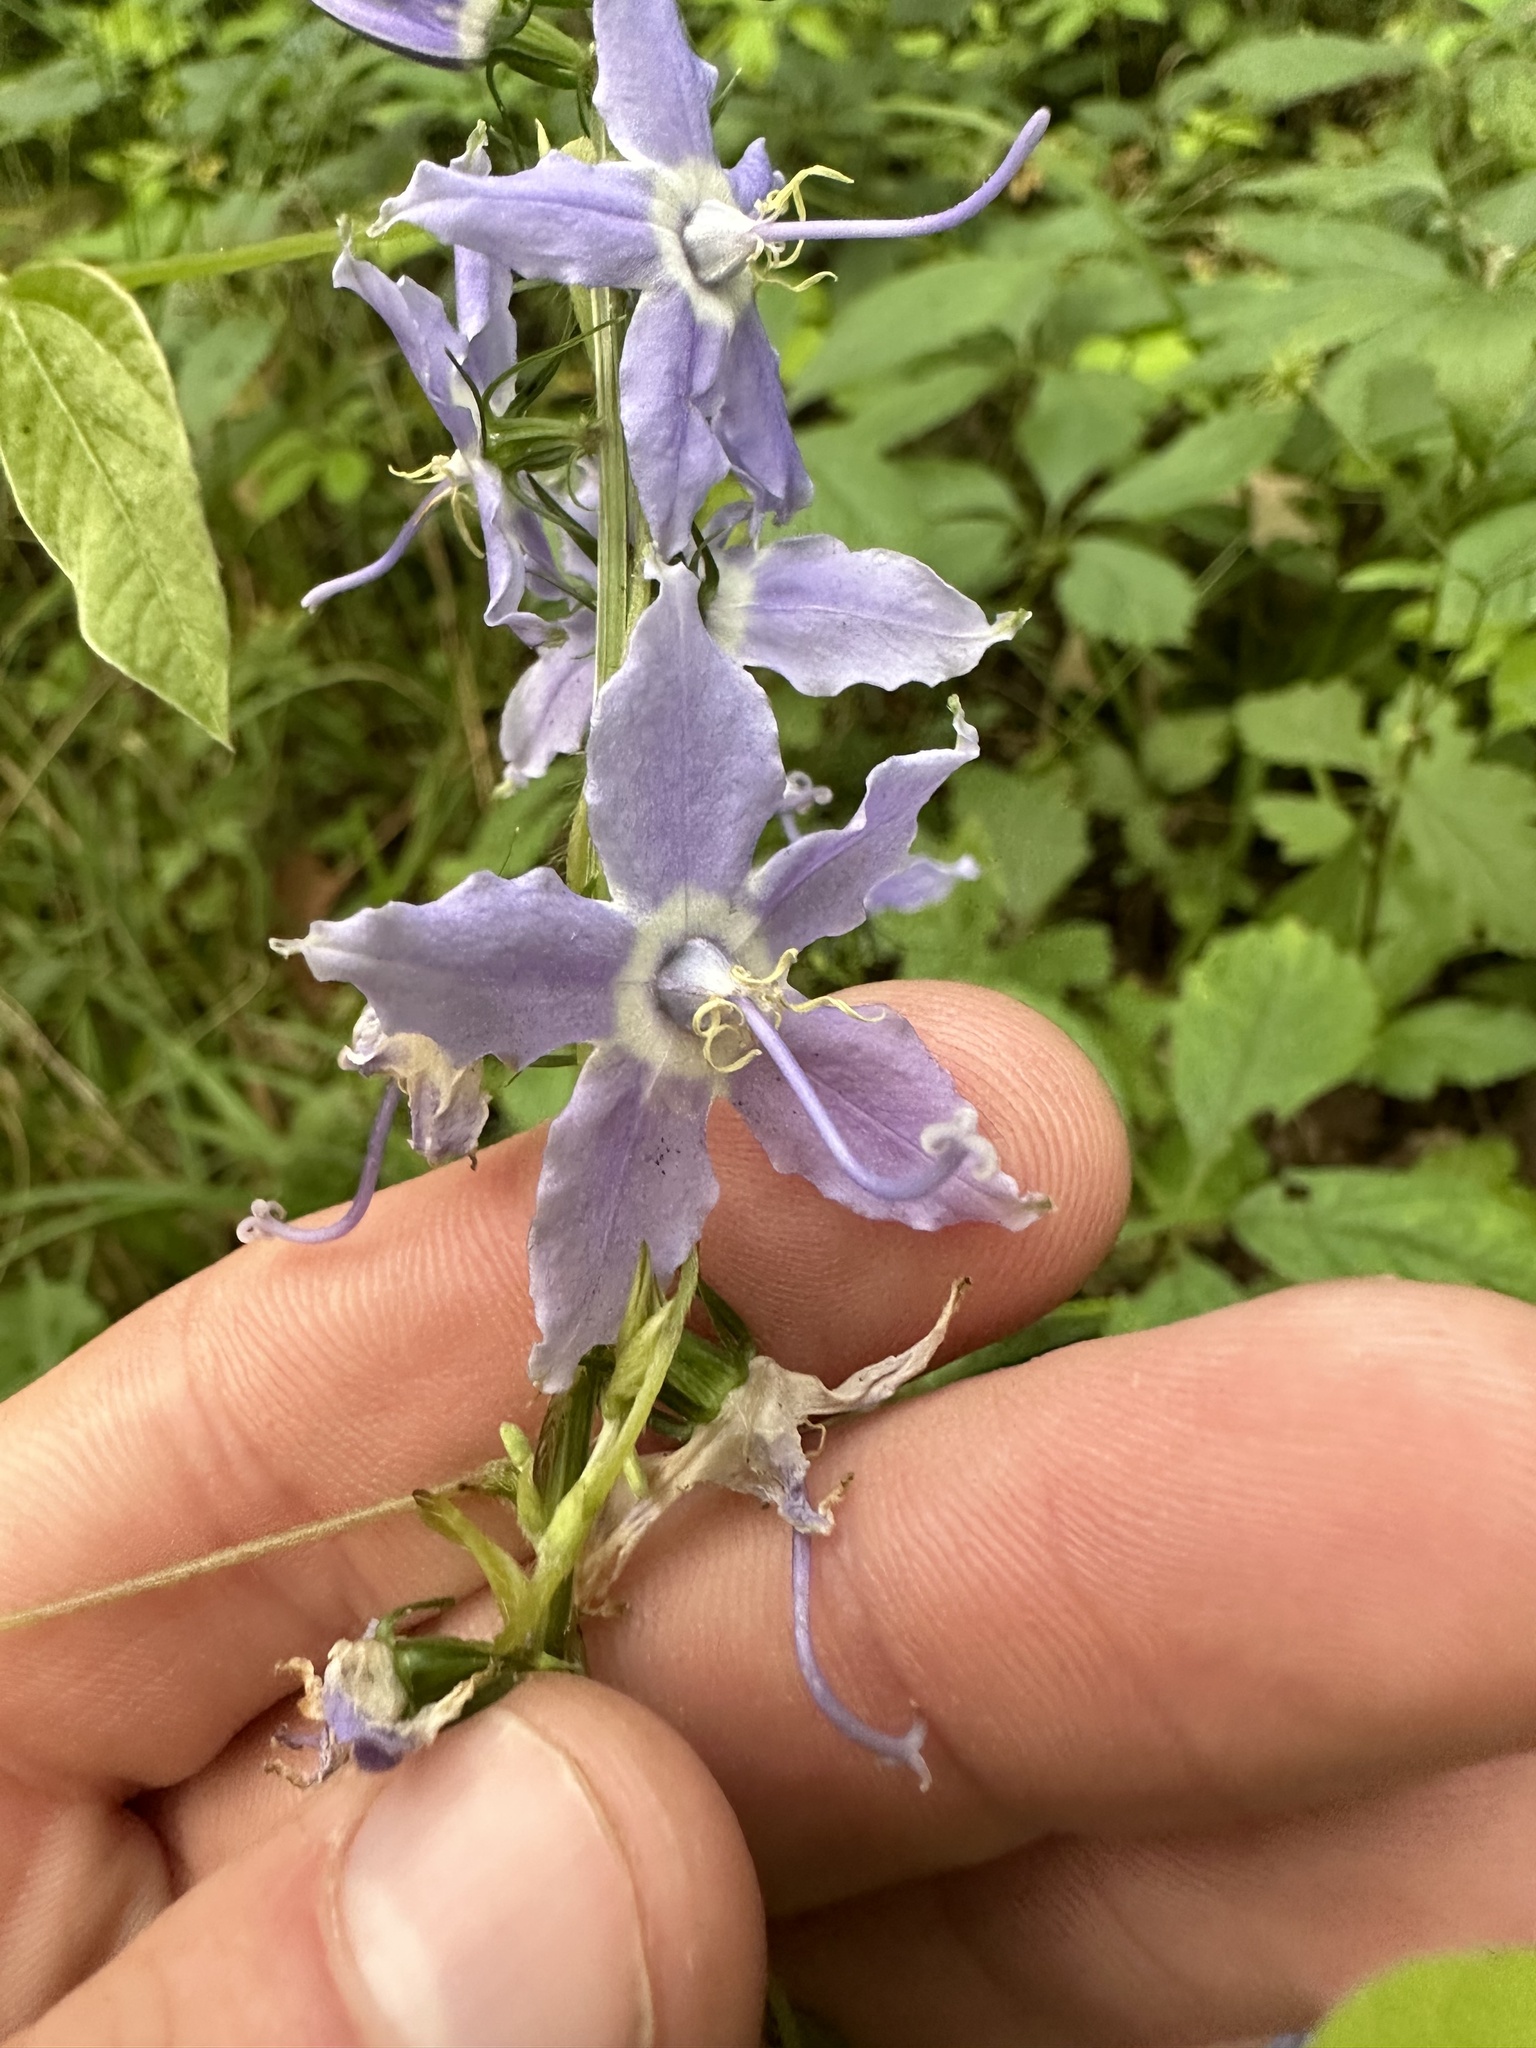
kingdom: Plantae
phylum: Tracheophyta
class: Magnoliopsida
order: Asterales
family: Campanulaceae
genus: Campanulastrum
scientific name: Campanulastrum americanum
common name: American bellflower
